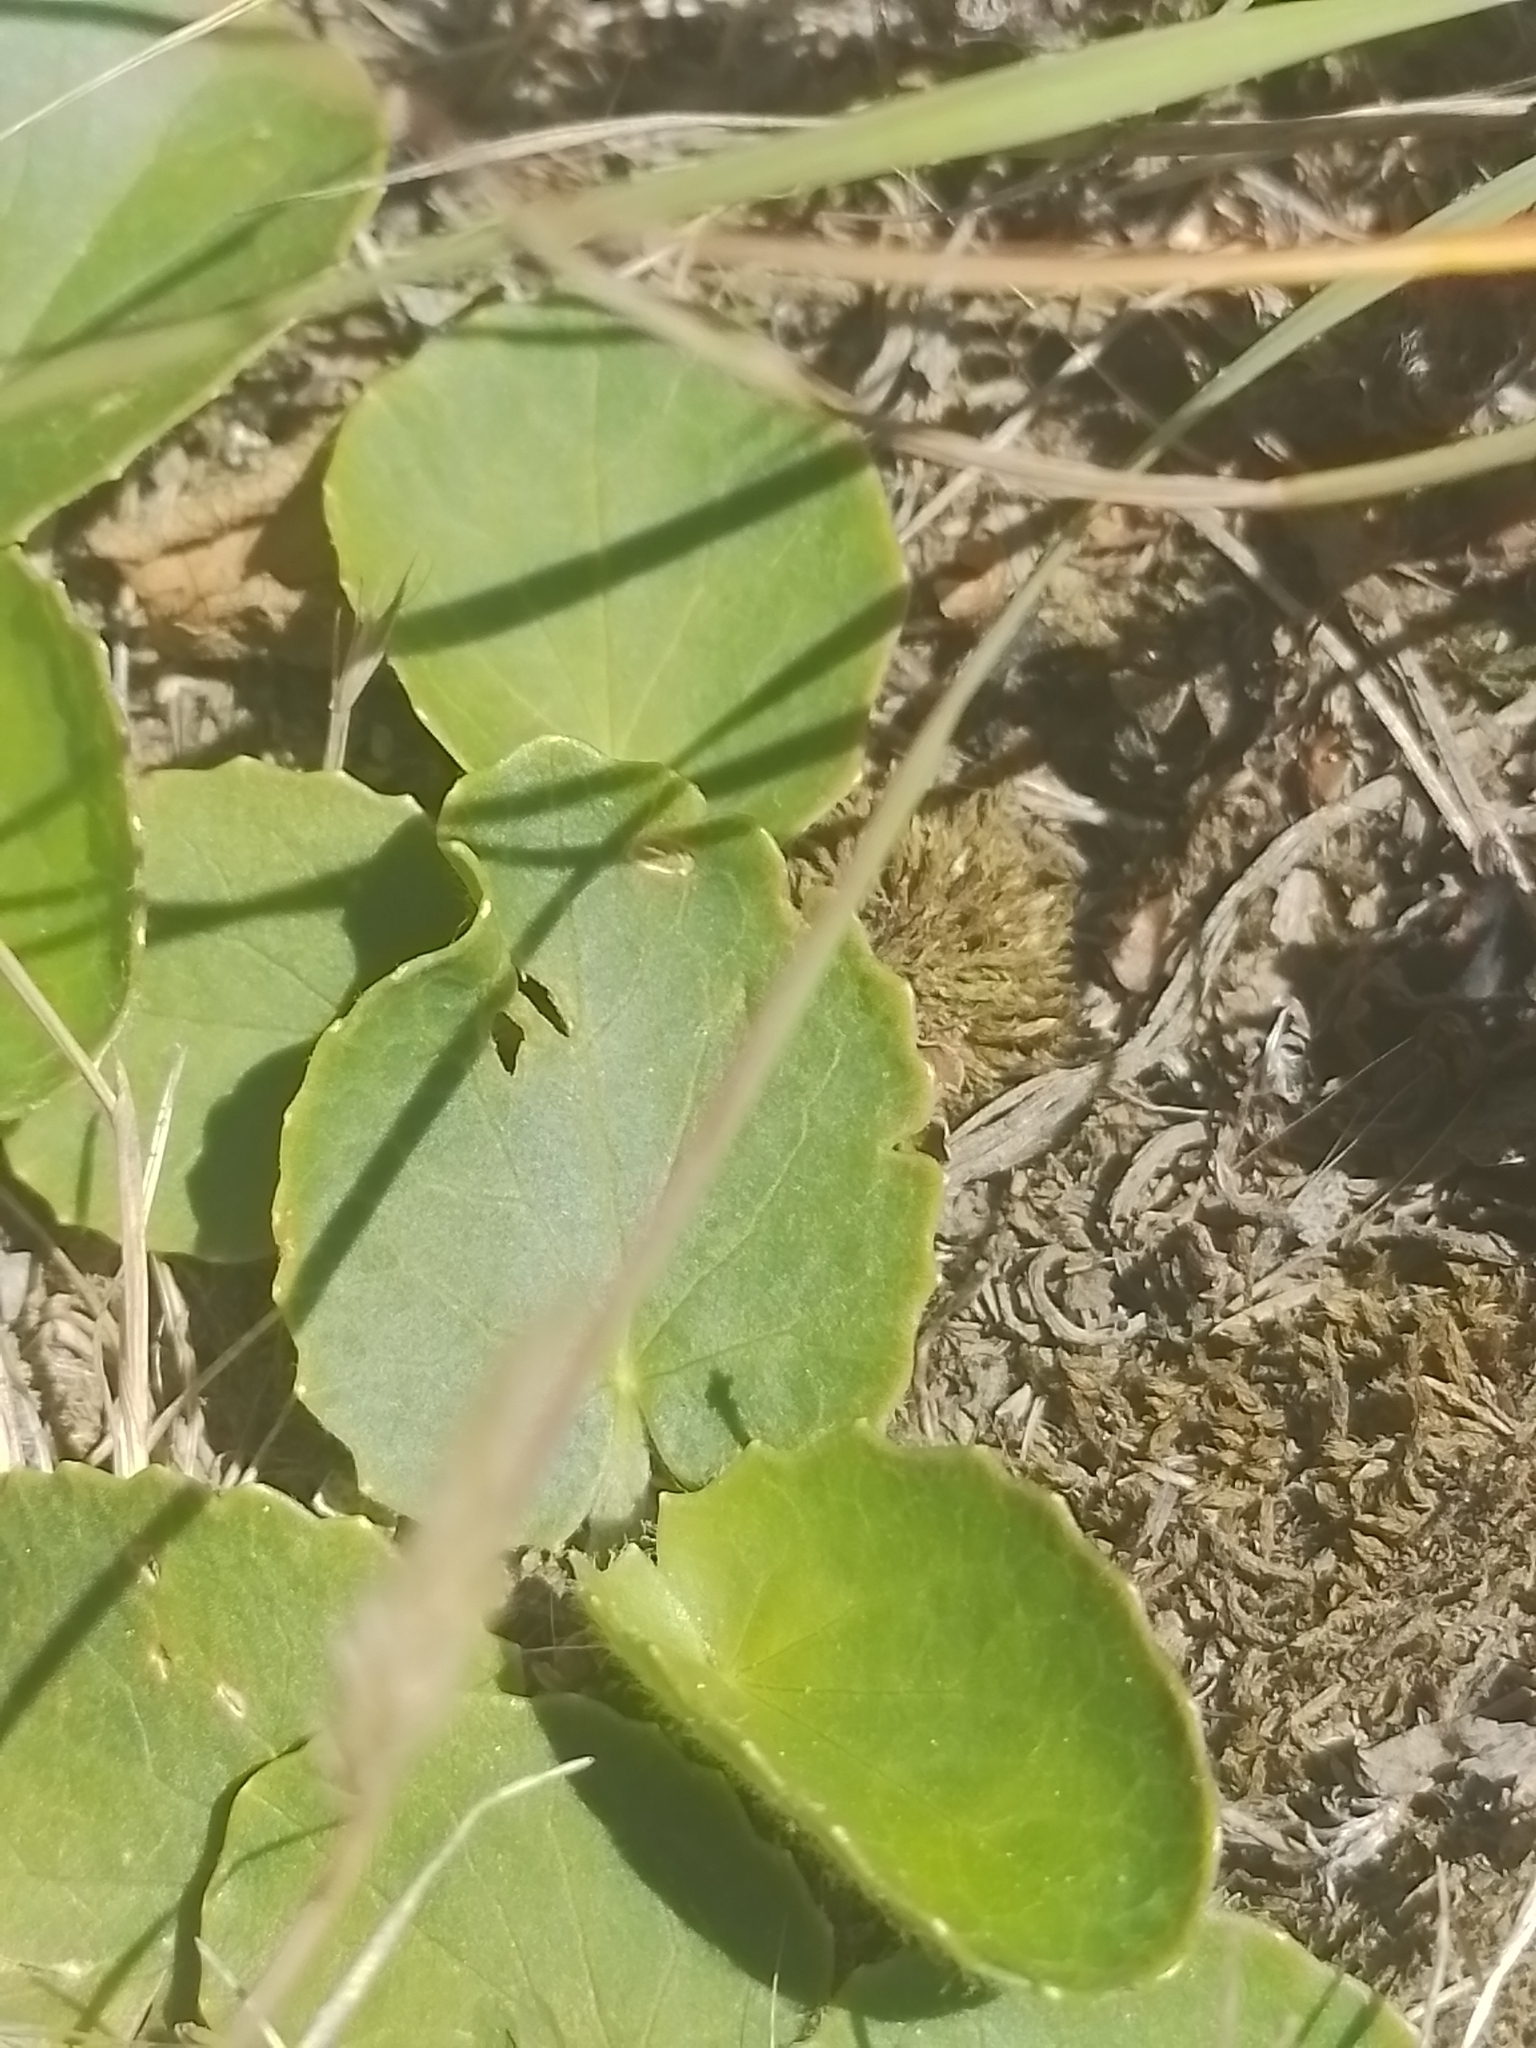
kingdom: Plantae
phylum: Tracheophyta
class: Magnoliopsida
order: Apiales
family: Apiaceae
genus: Centella
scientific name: Centella asiatica
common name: Spadeleaf
